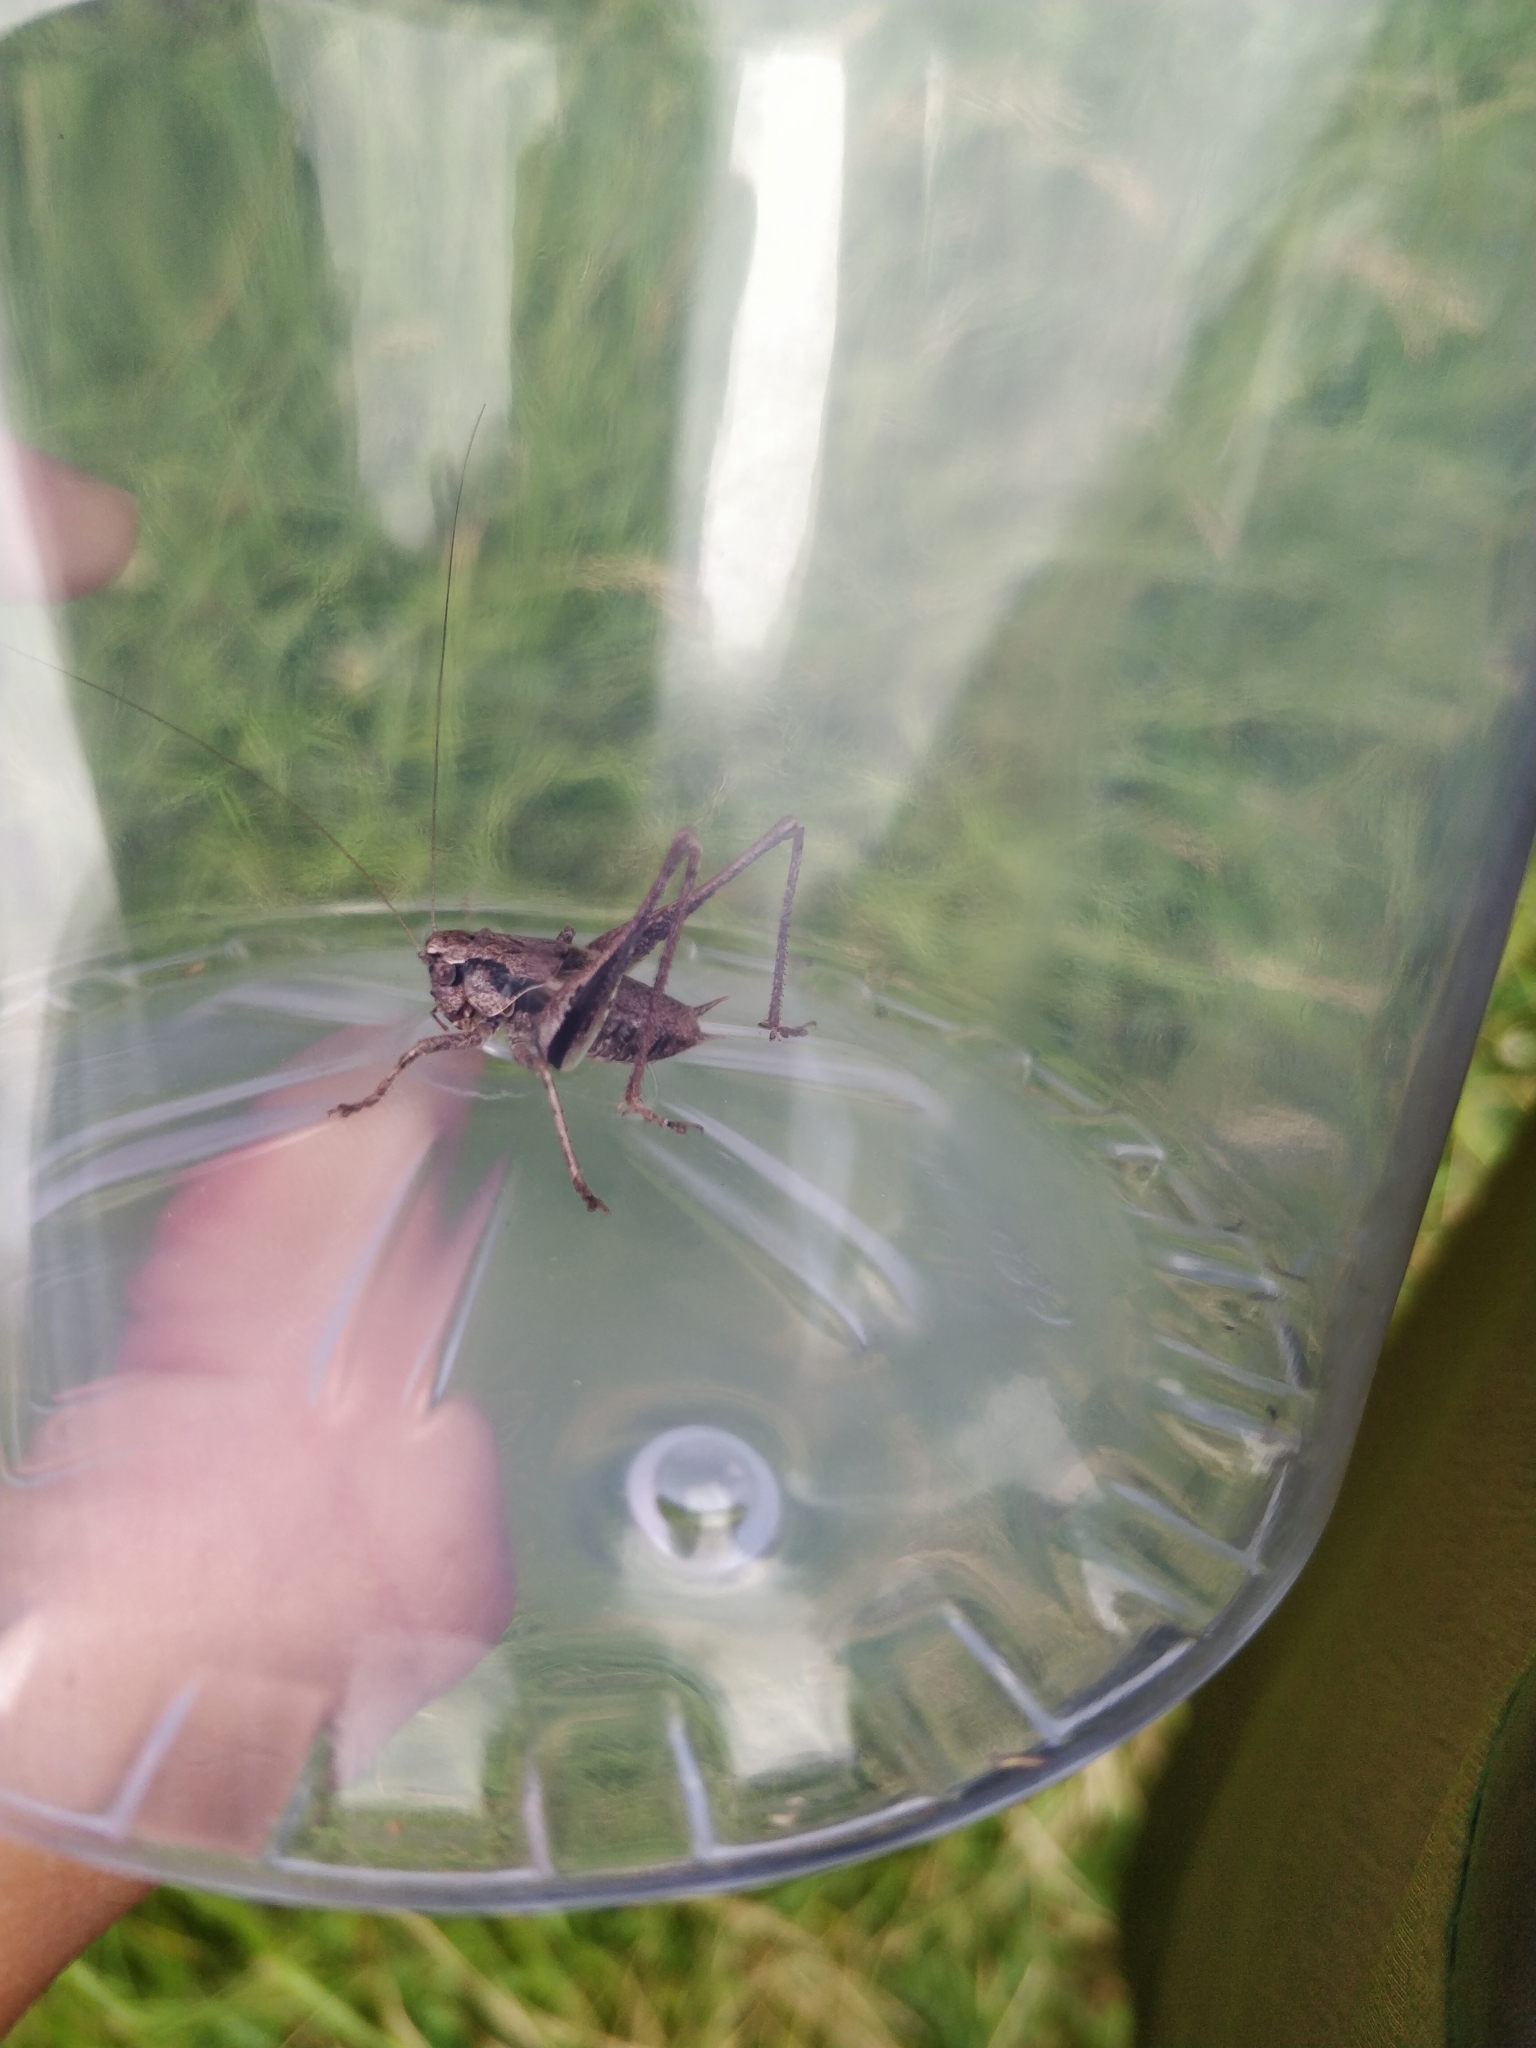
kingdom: Animalia
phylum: Arthropoda
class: Insecta
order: Orthoptera
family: Tettigoniidae
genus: Pholidoptera
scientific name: Pholidoptera griseoaptera
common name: Dark bush-cricket
